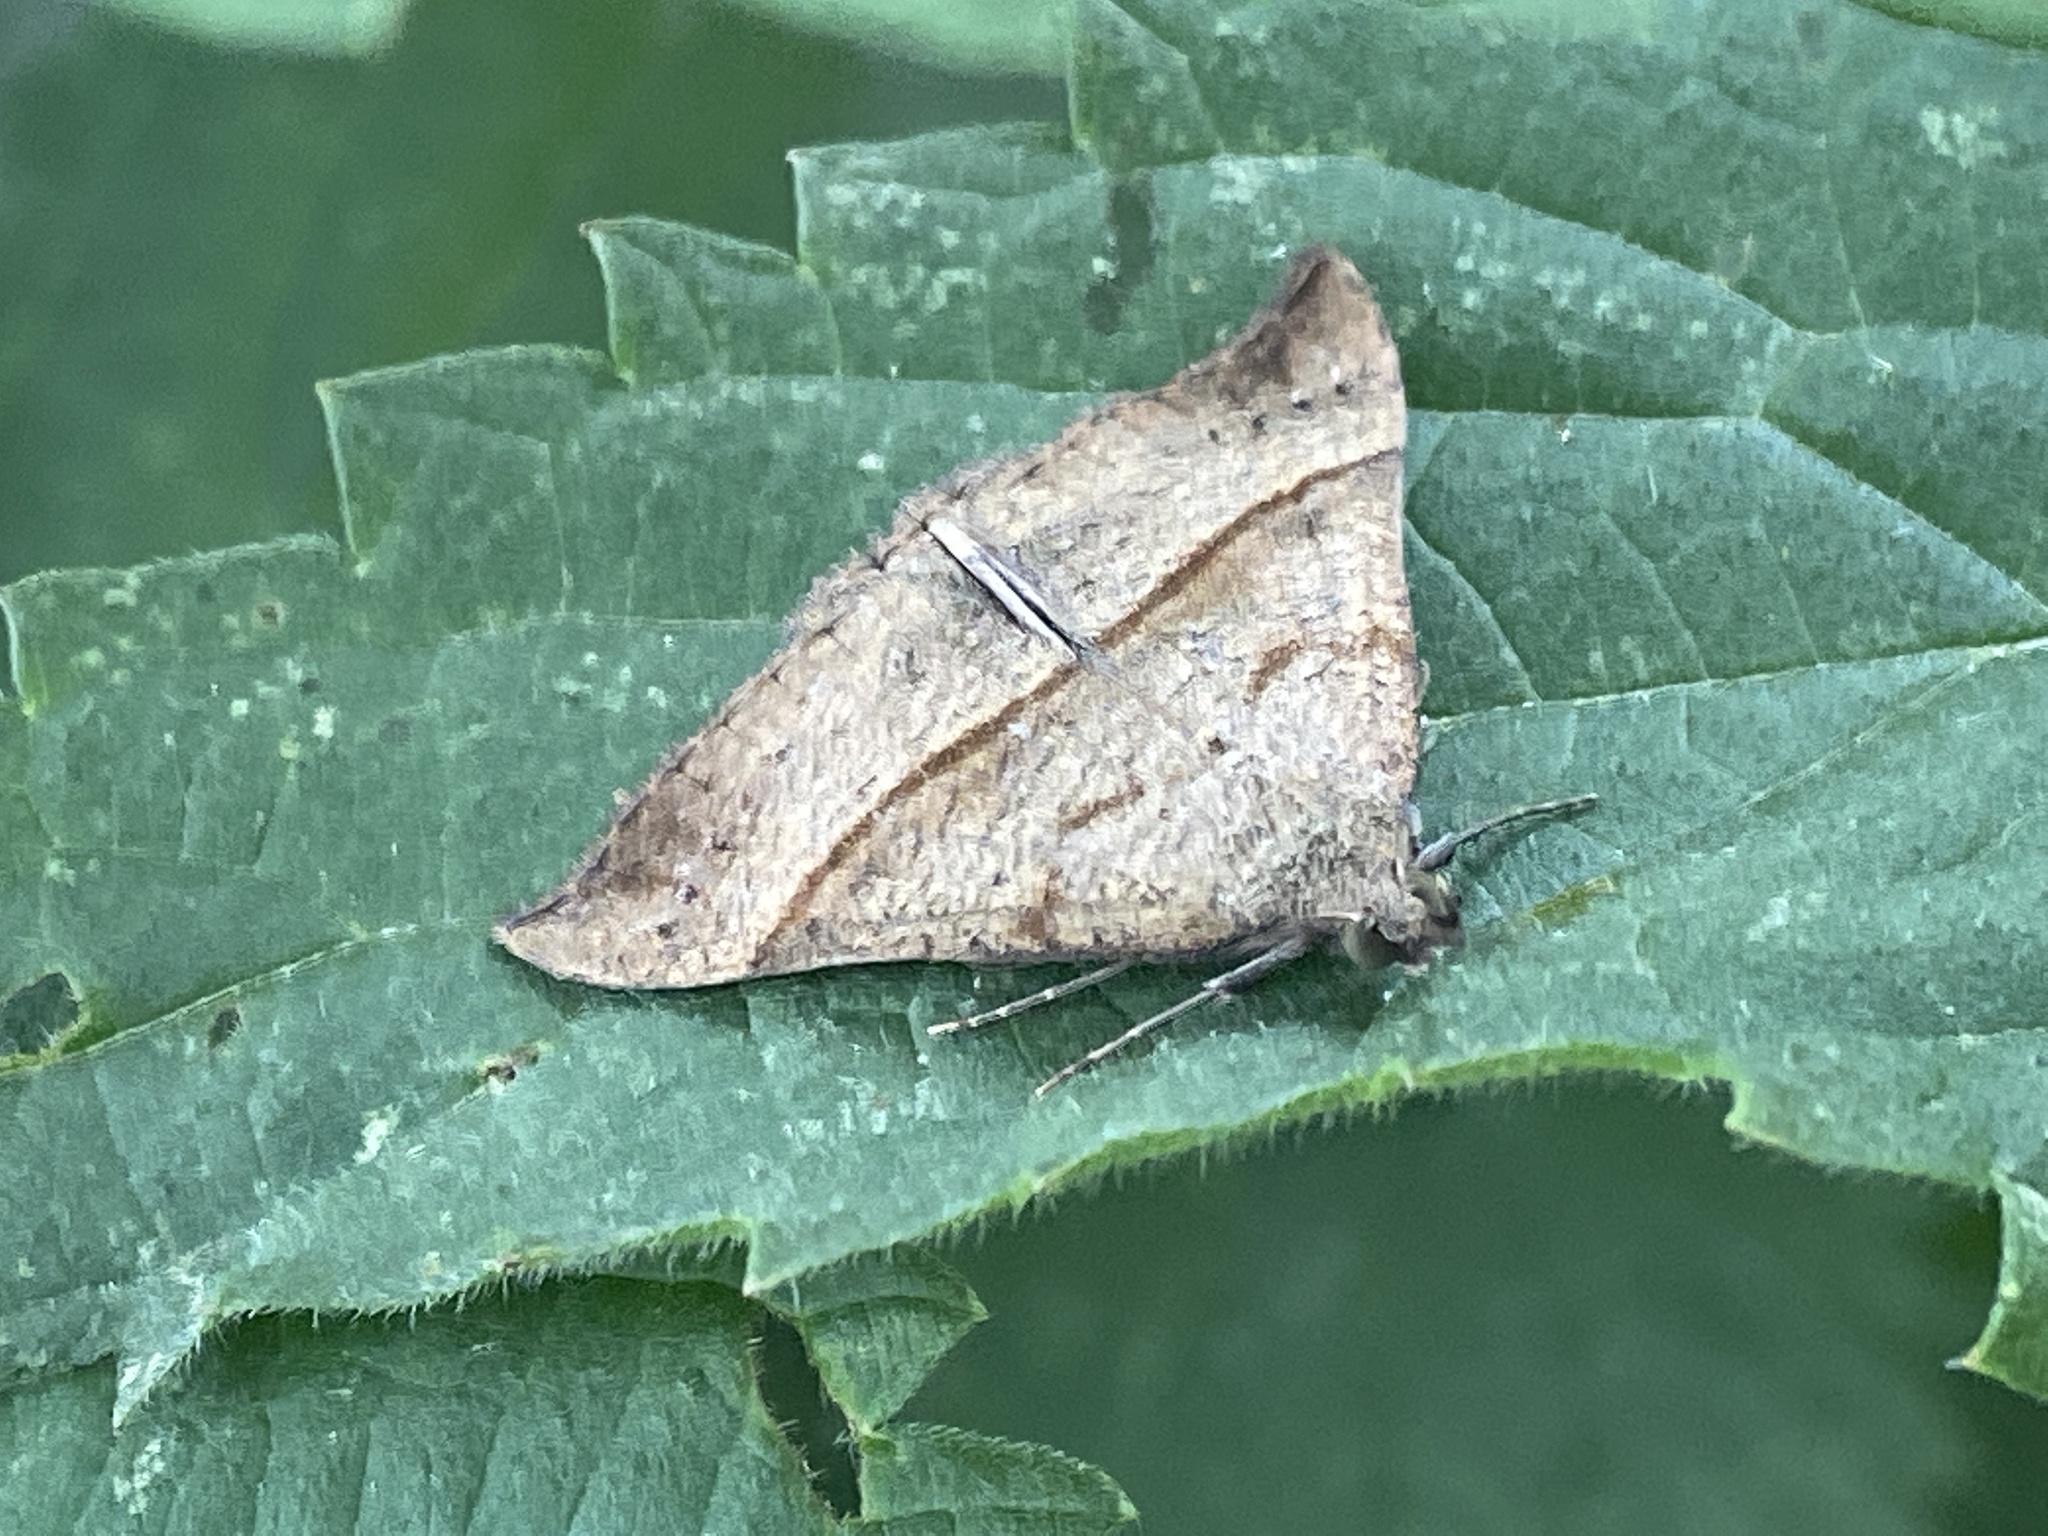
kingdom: Animalia
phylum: Arthropoda
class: Insecta
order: Lepidoptera
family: Erebidae
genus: Hypena
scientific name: Hypena proboscidalis
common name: Snout
